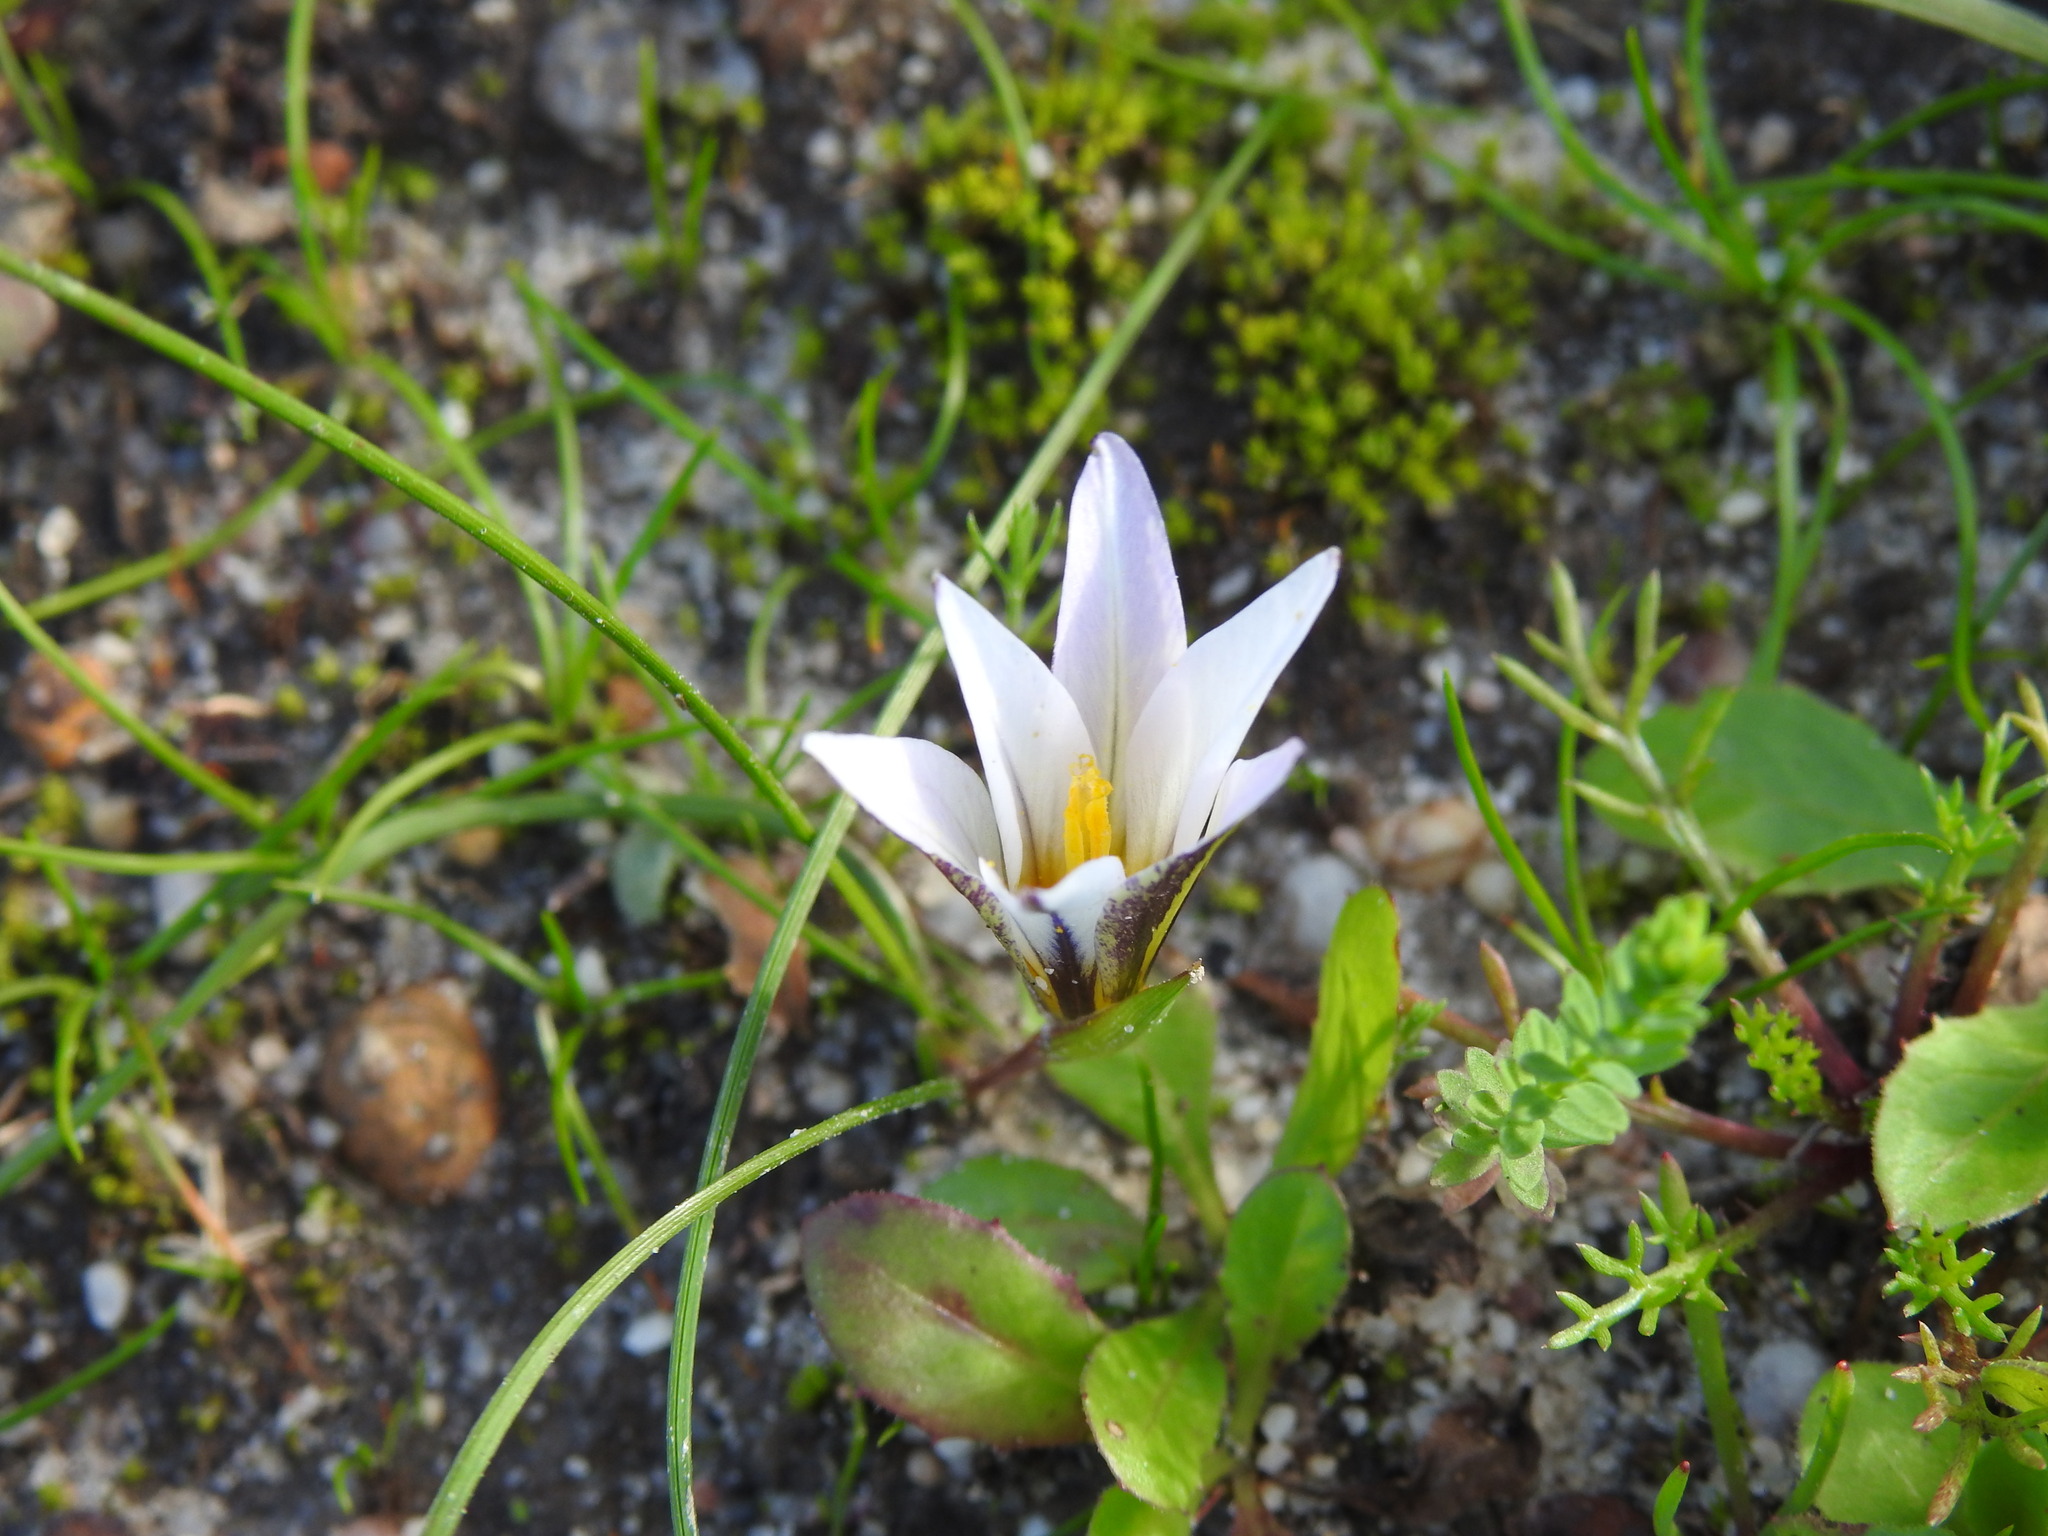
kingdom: Plantae
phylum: Tracheophyta
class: Liliopsida
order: Asparagales
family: Iridaceae
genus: Romulea
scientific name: Romulea bulbocodium
